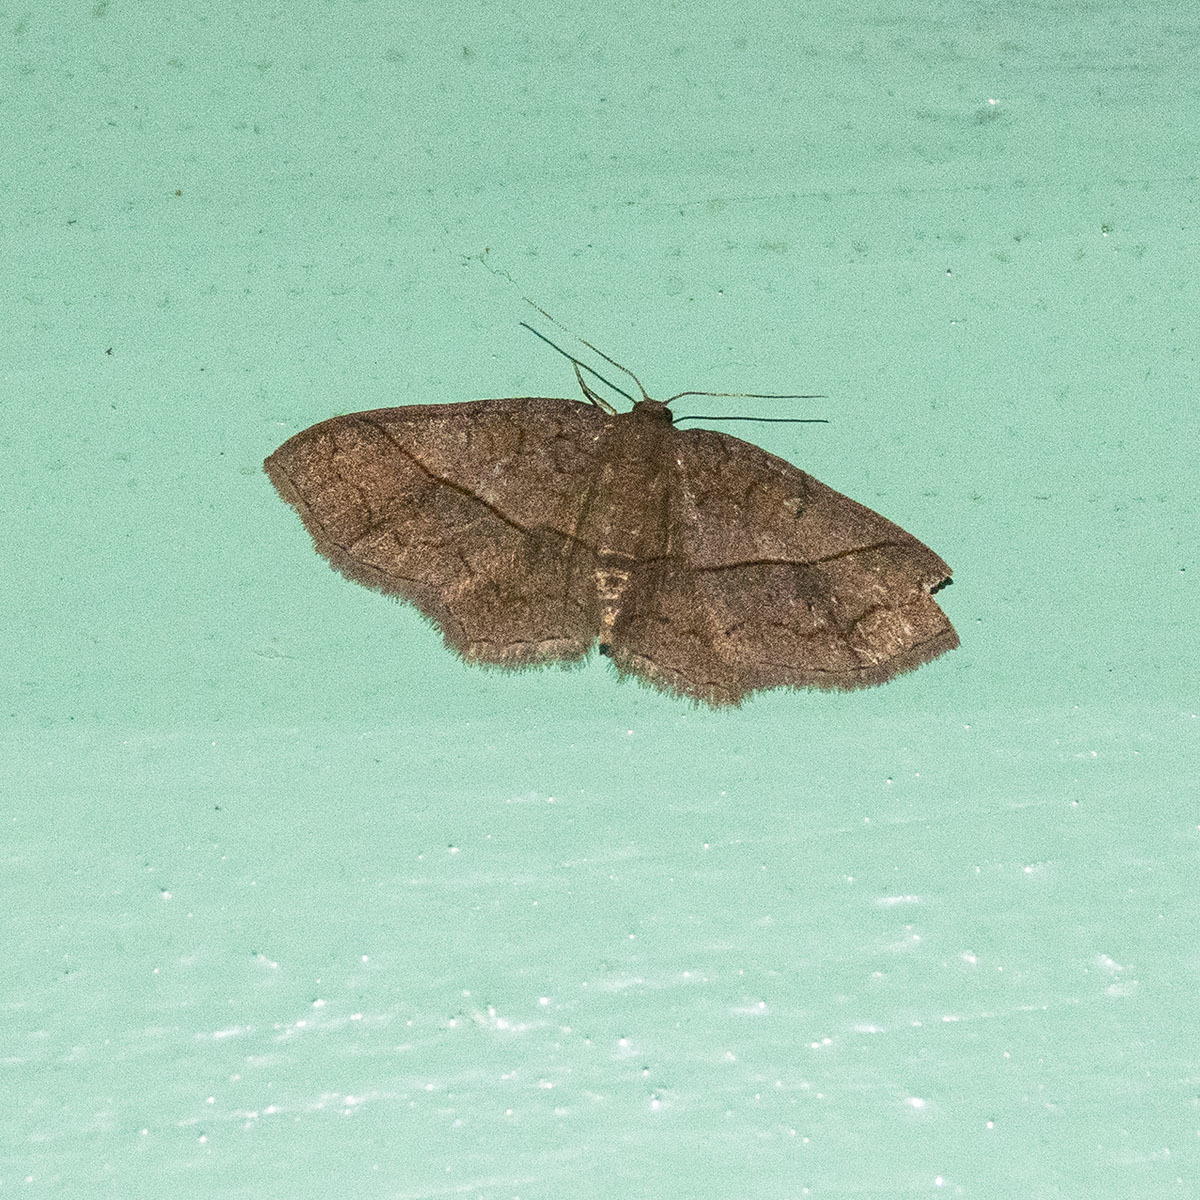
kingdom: Animalia
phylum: Arthropoda
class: Insecta
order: Lepidoptera
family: Geometridae
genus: Hydrelia
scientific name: Hydrelia sericea
